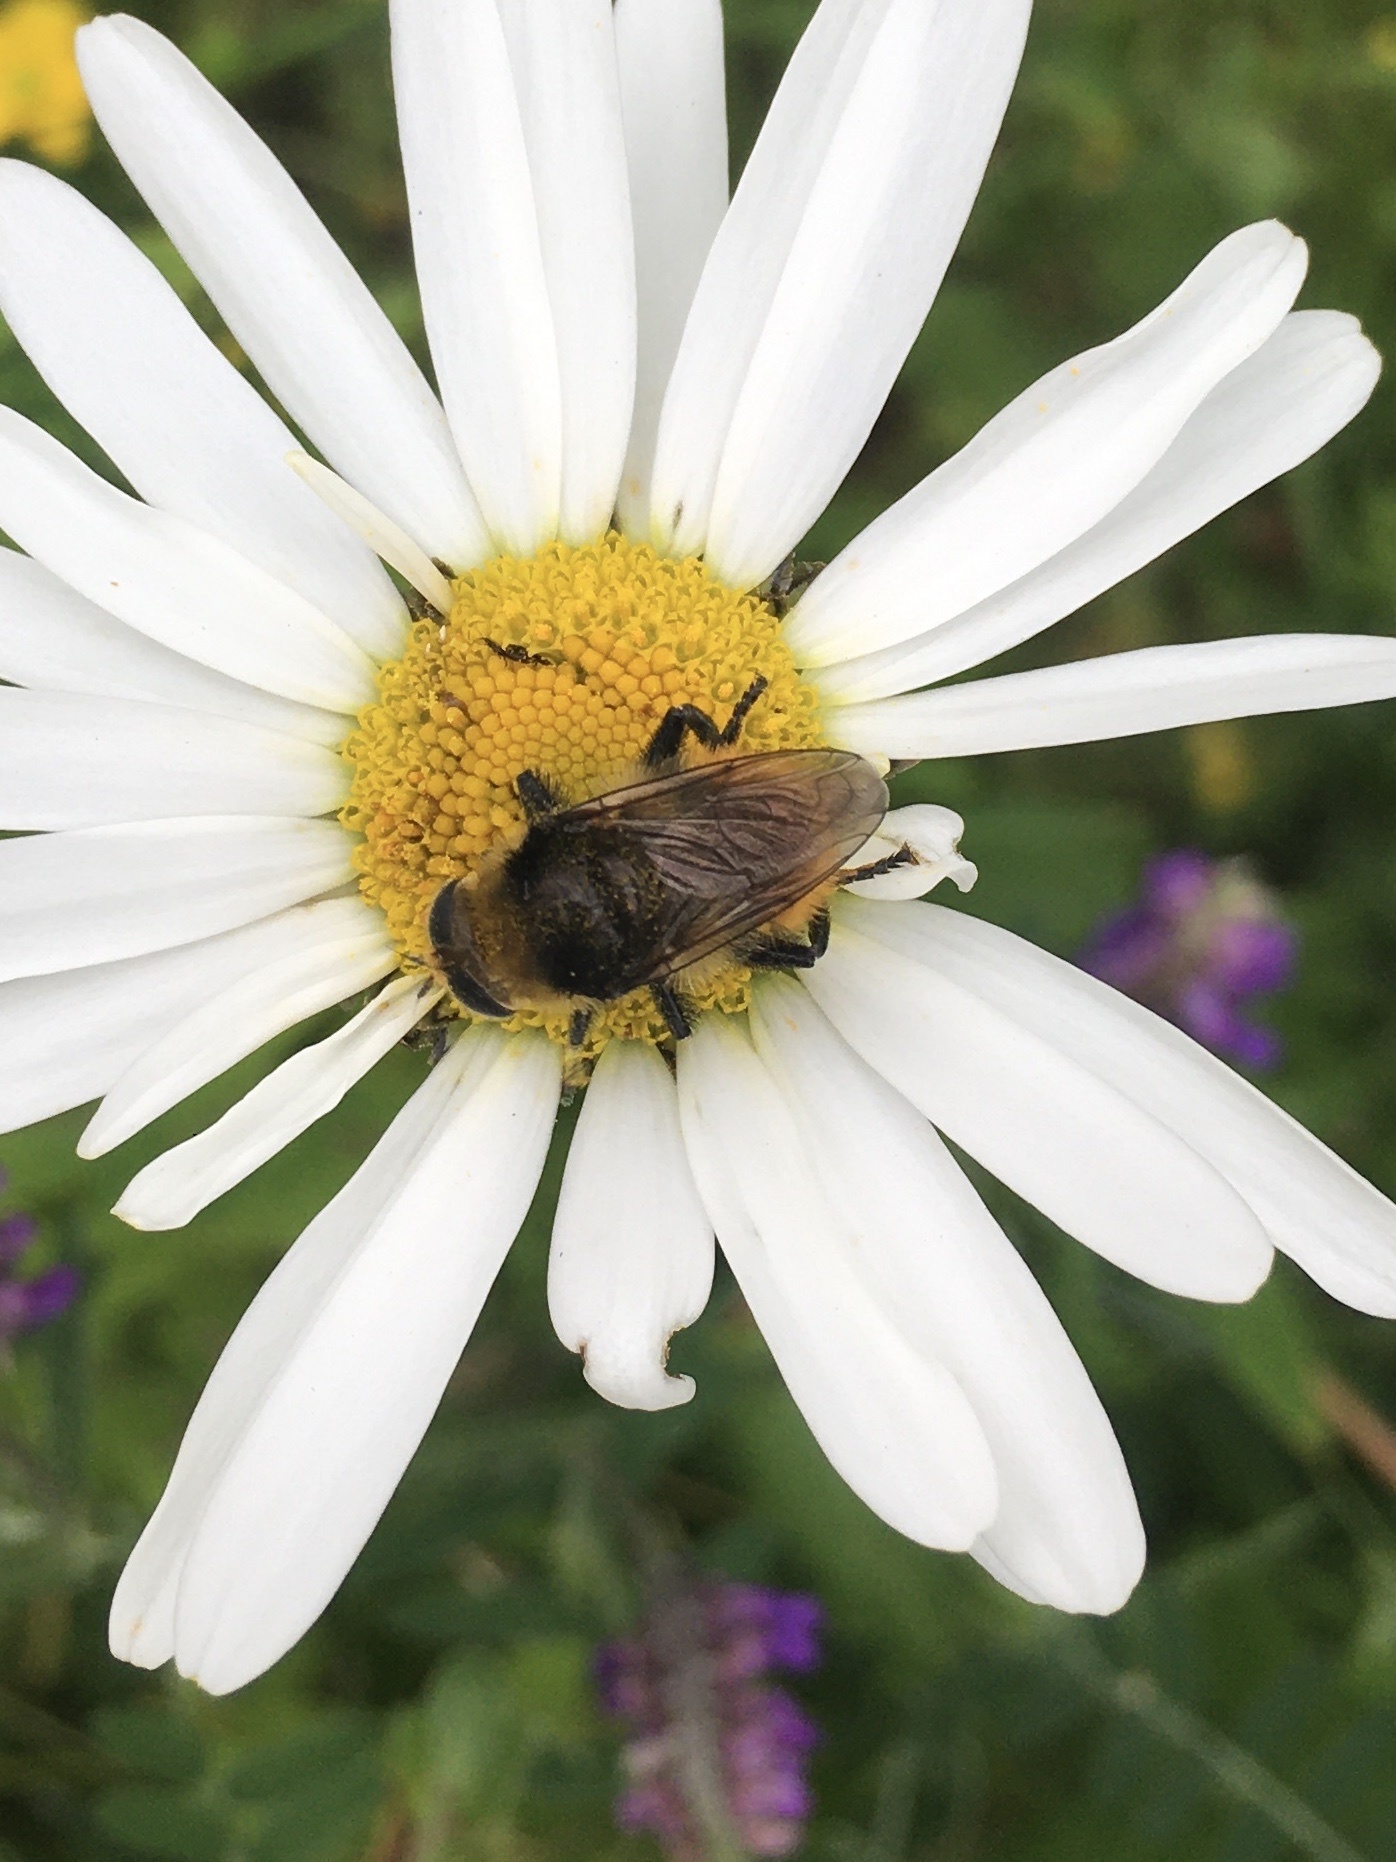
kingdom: Animalia
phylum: Arthropoda
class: Insecta
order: Diptera
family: Syrphidae
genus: Merodon
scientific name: Merodon equestris
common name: Greater bulb-fly
